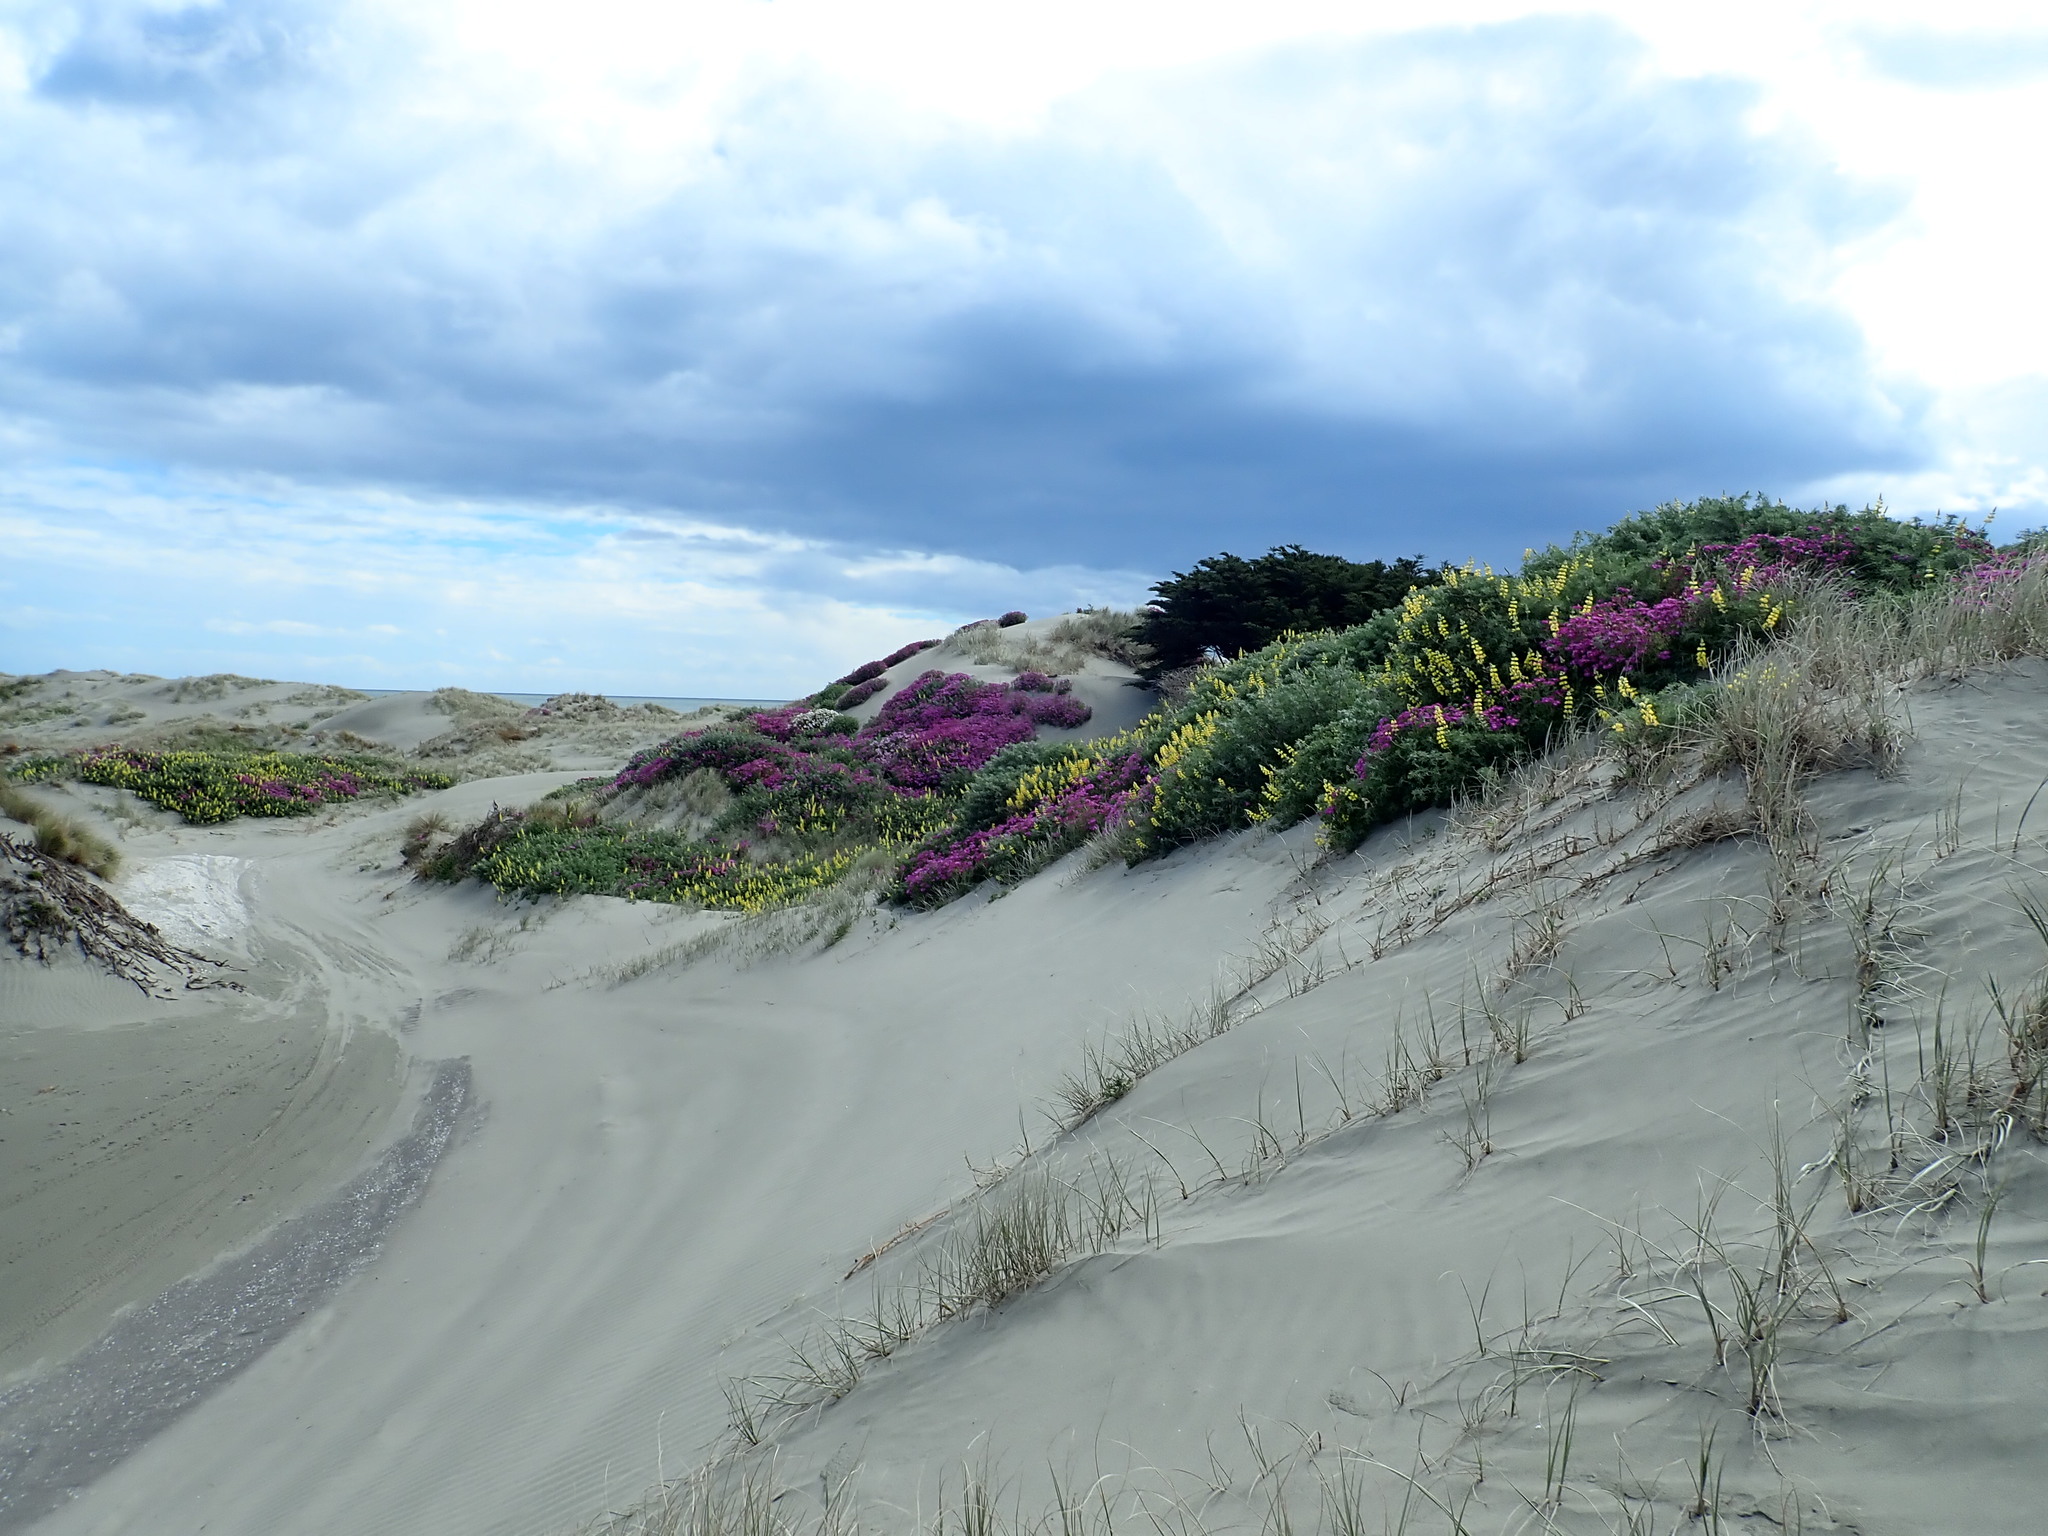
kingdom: Plantae
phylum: Tracheophyta
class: Magnoliopsida
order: Asterales
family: Asteraceae
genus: Senecio
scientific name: Senecio elegans
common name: Purple groundsel
